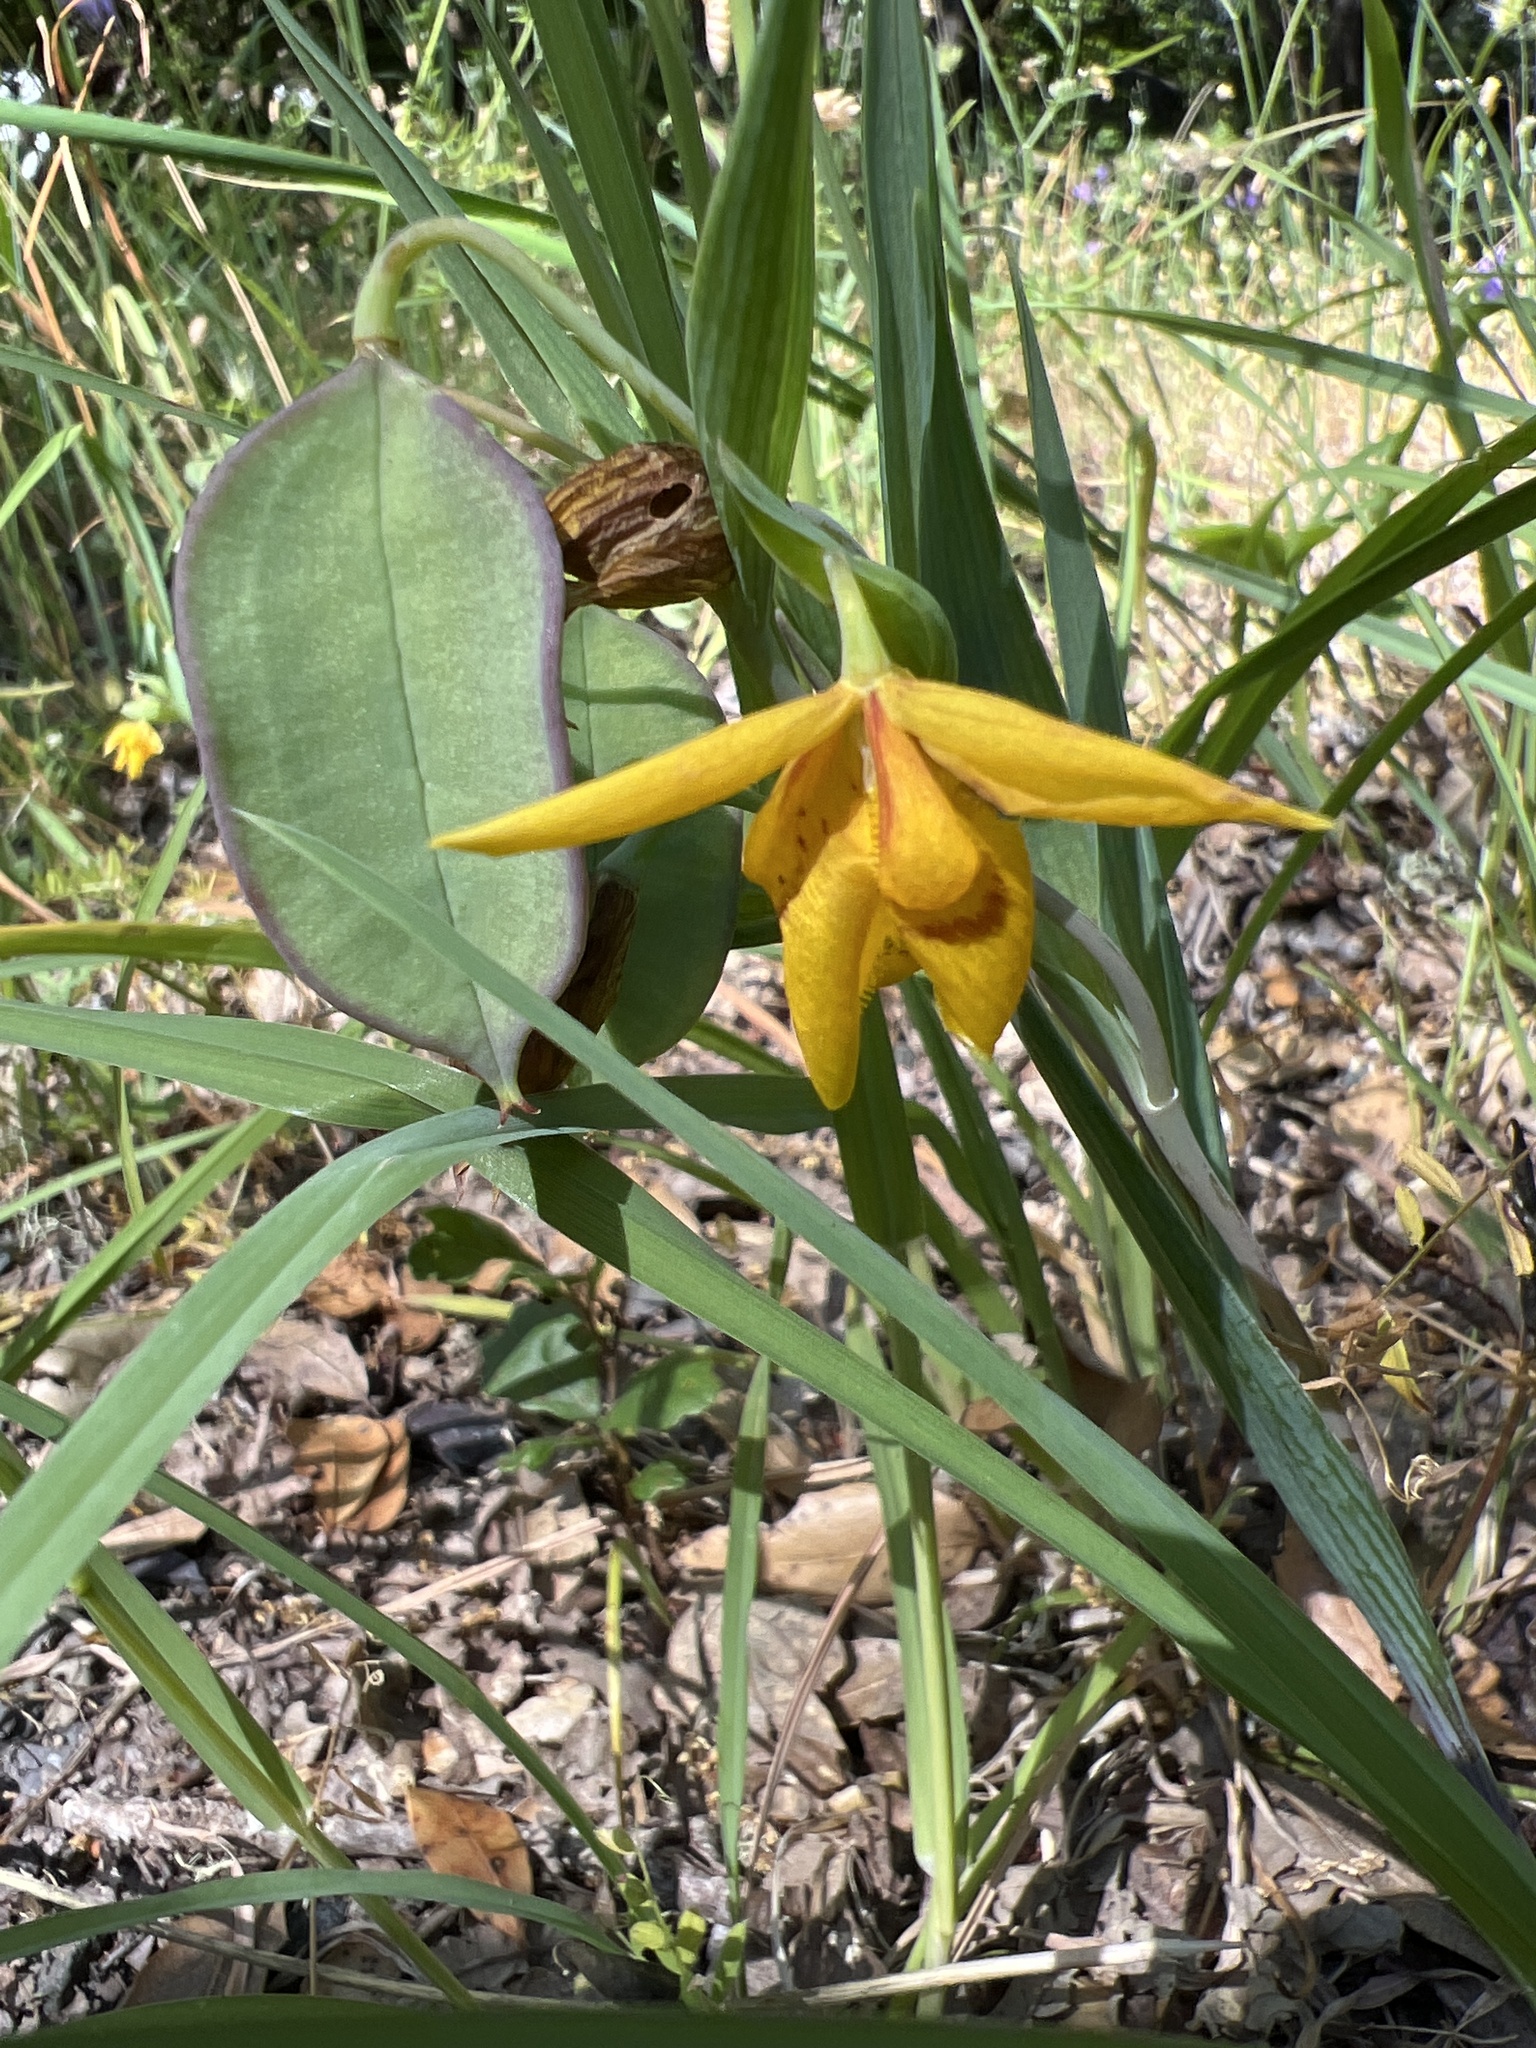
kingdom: Plantae
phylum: Tracheophyta
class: Liliopsida
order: Liliales
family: Liliaceae
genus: Calochortus
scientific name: Calochortus amabilis
